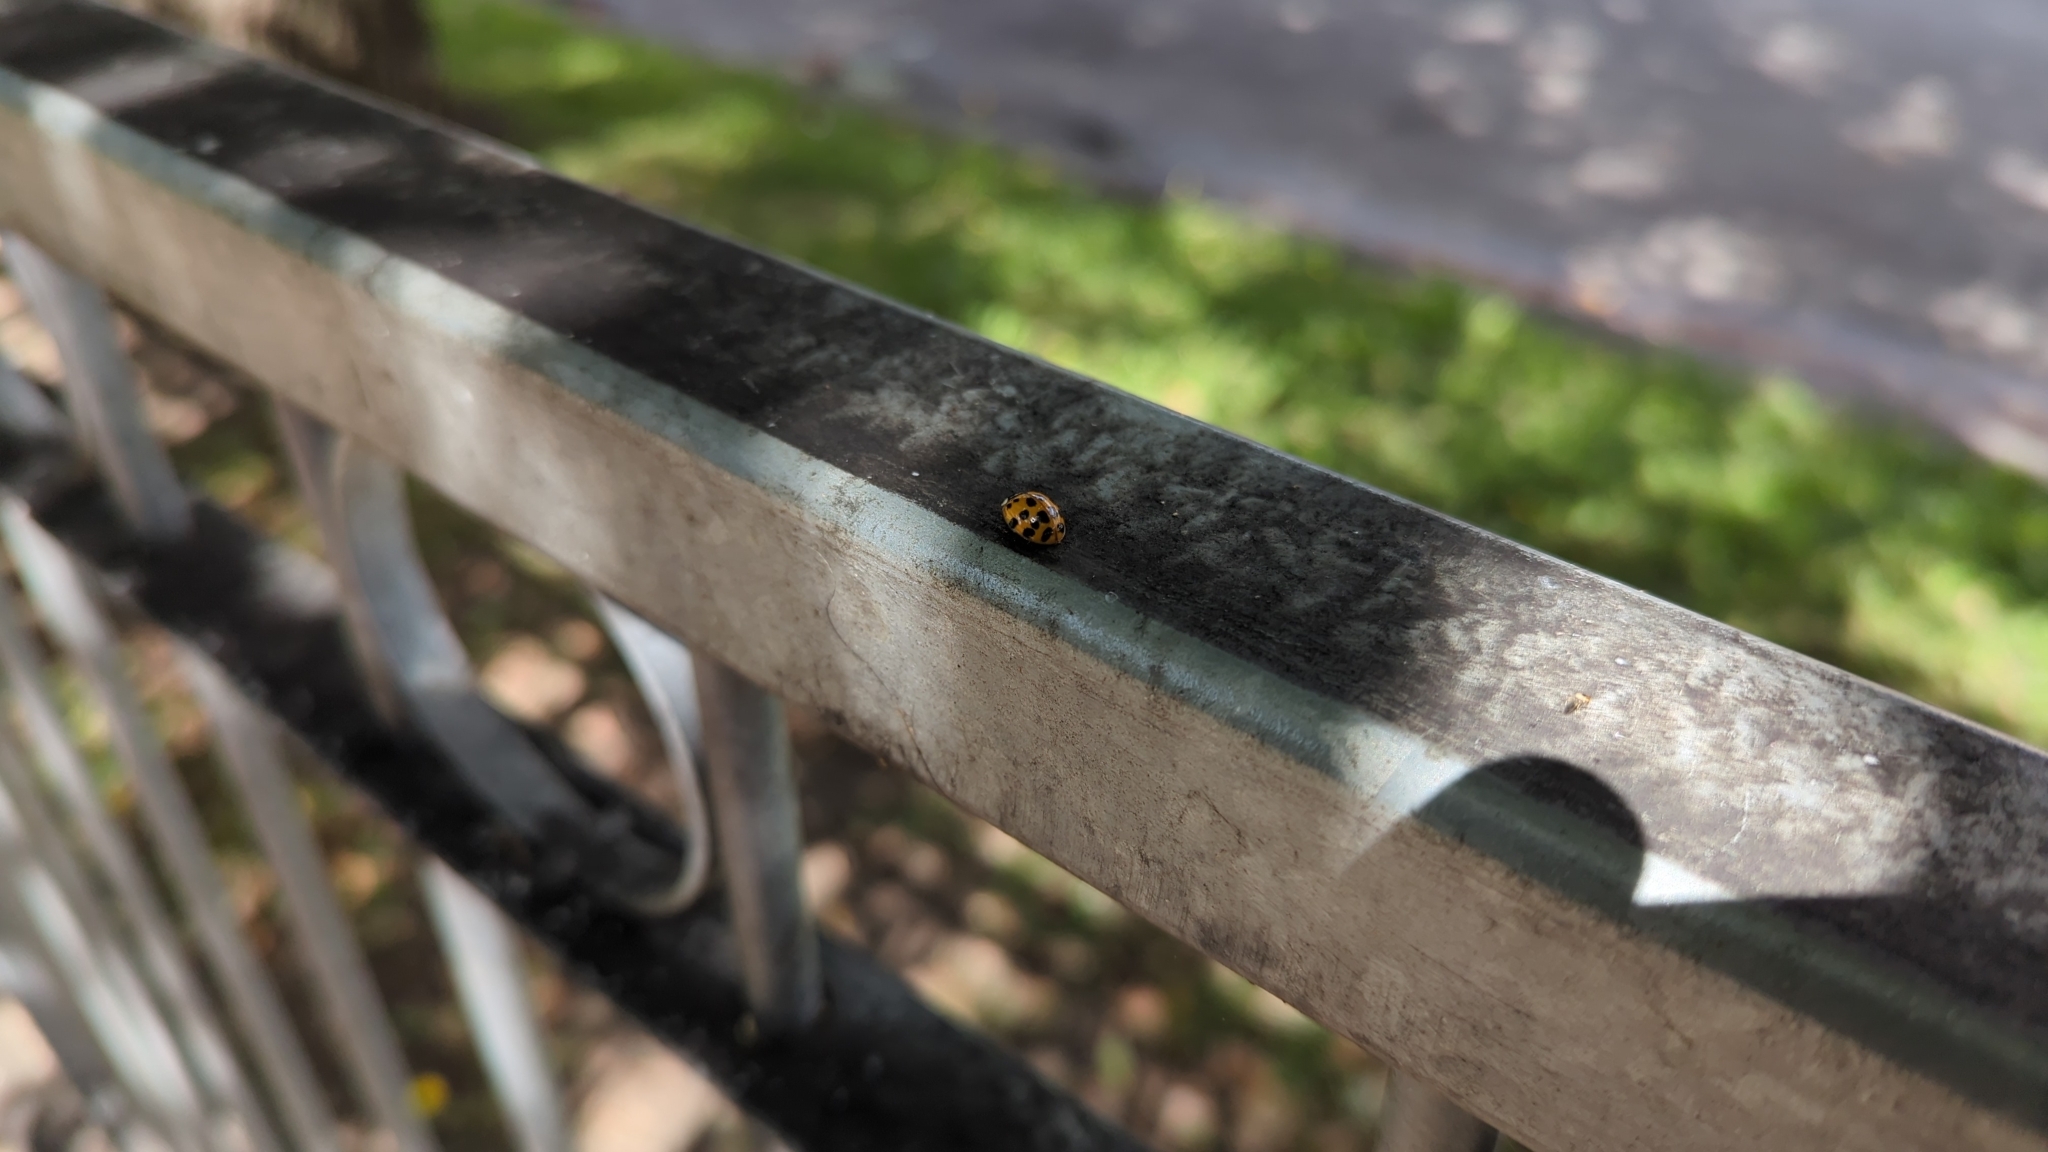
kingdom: Animalia
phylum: Arthropoda
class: Insecta
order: Coleoptera
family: Coccinellidae
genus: Harmonia
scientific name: Harmonia axyridis
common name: Harlequin ladybird
